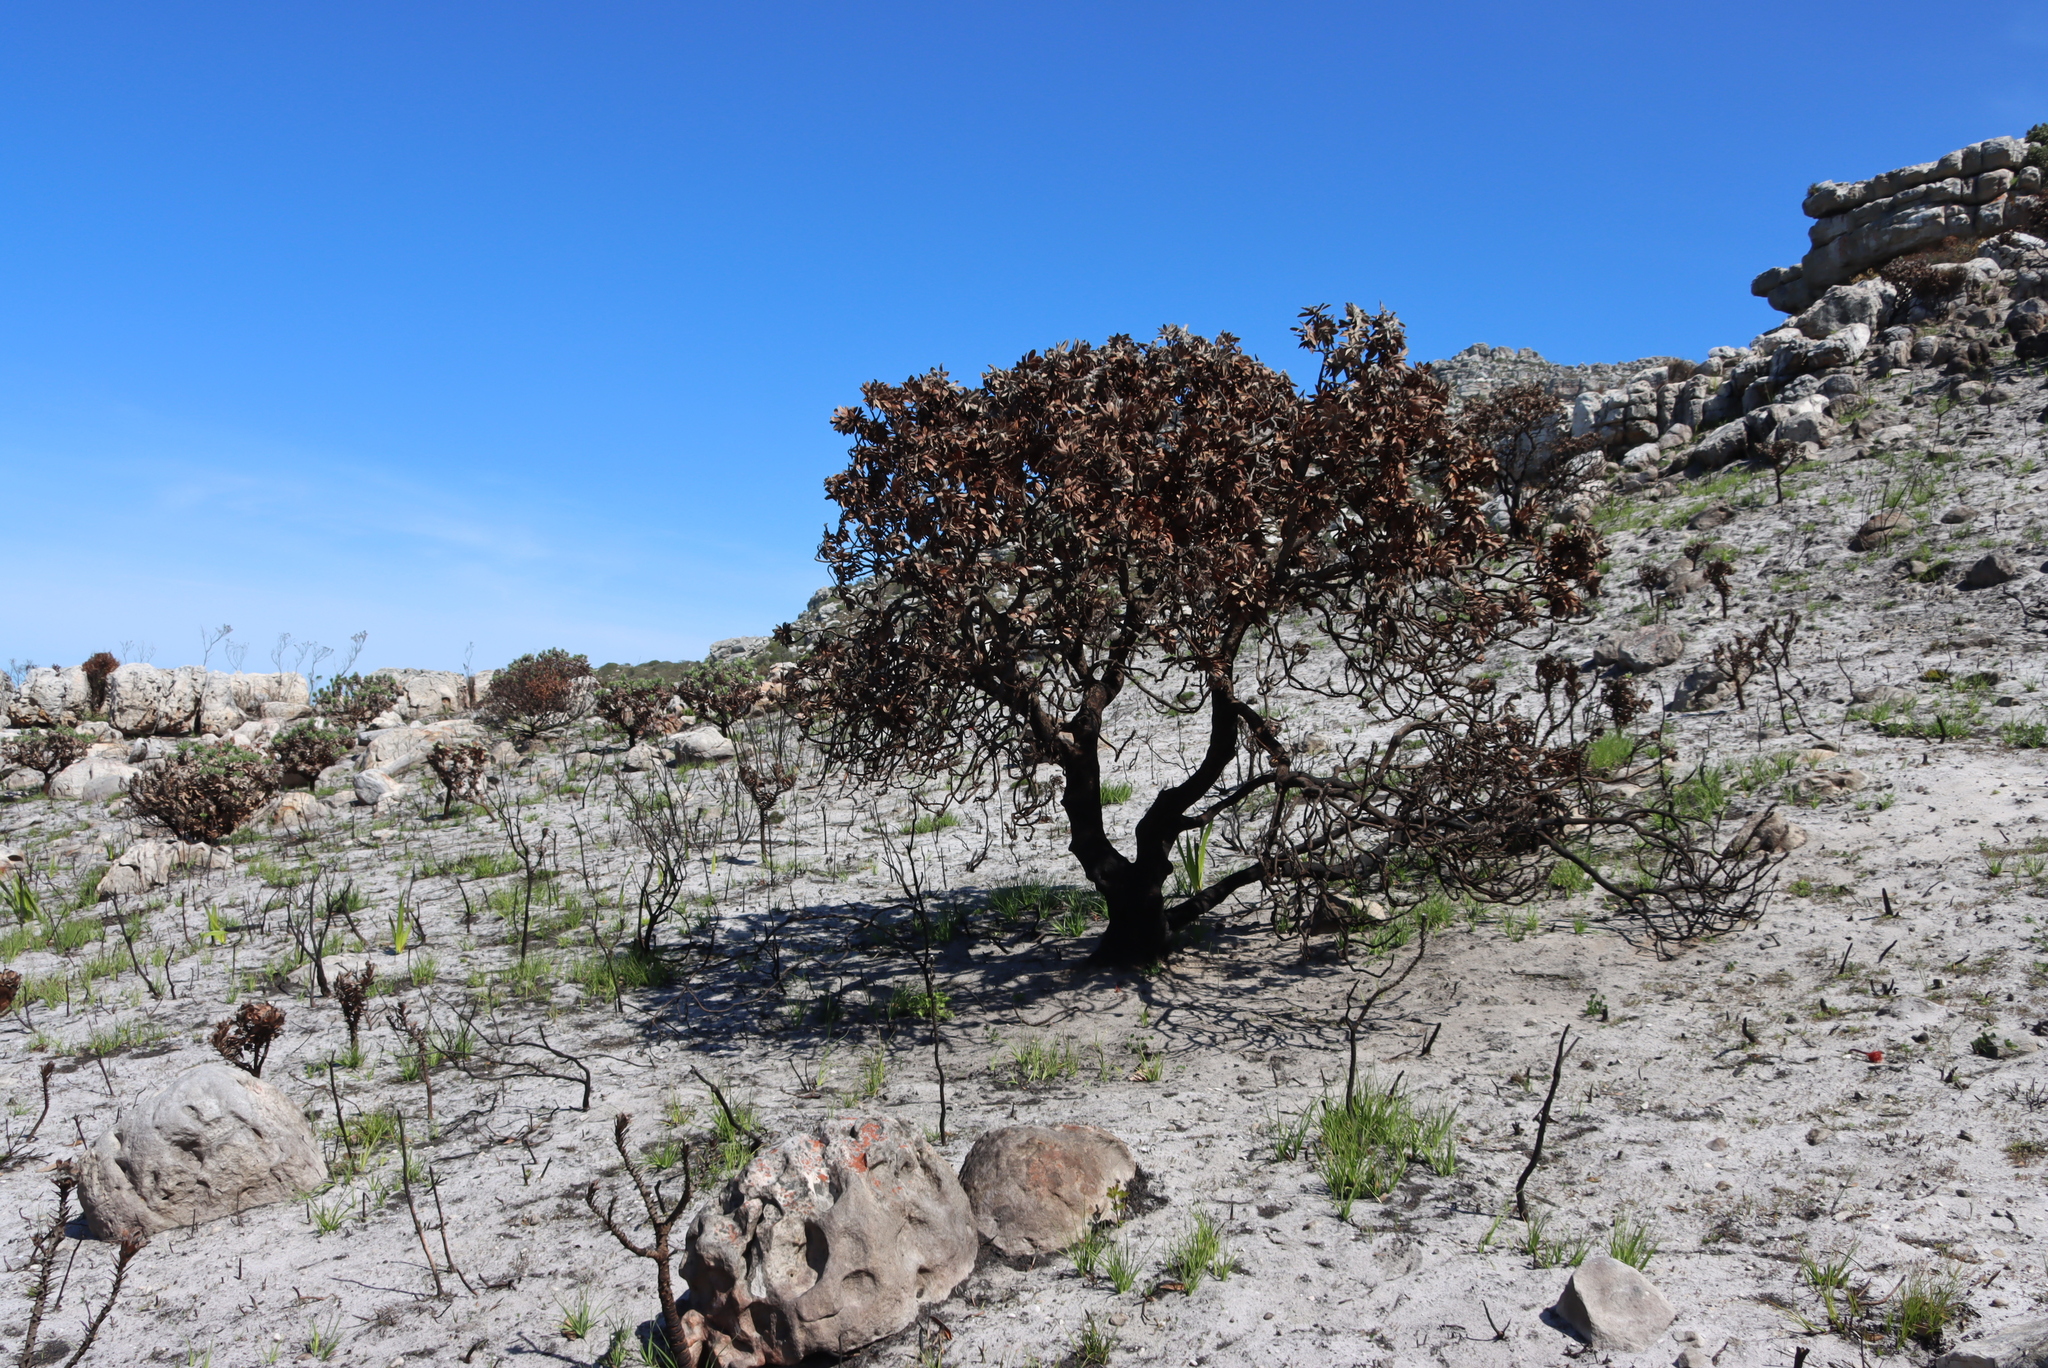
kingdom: Plantae
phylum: Tracheophyta
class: Magnoliopsida
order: Proteales
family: Proteaceae
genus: Leucospermum
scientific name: Leucospermum conocarpodendron
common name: Tree pincushion
